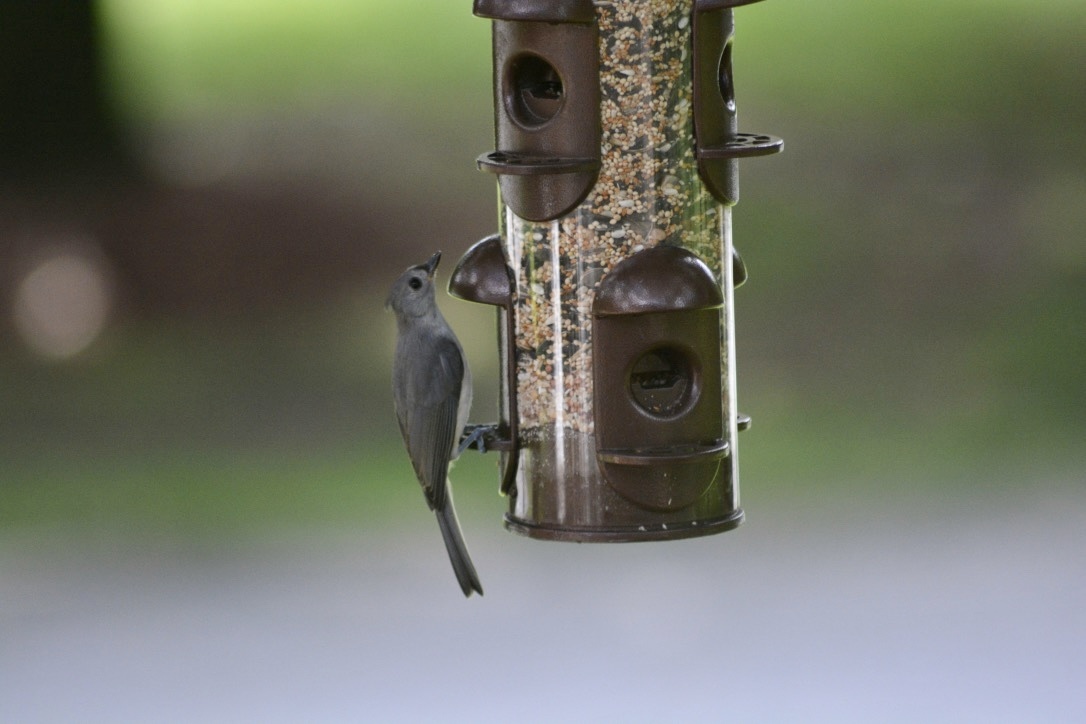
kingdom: Animalia
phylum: Chordata
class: Aves
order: Passeriformes
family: Paridae
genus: Baeolophus
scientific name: Baeolophus bicolor
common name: Tufted titmouse
